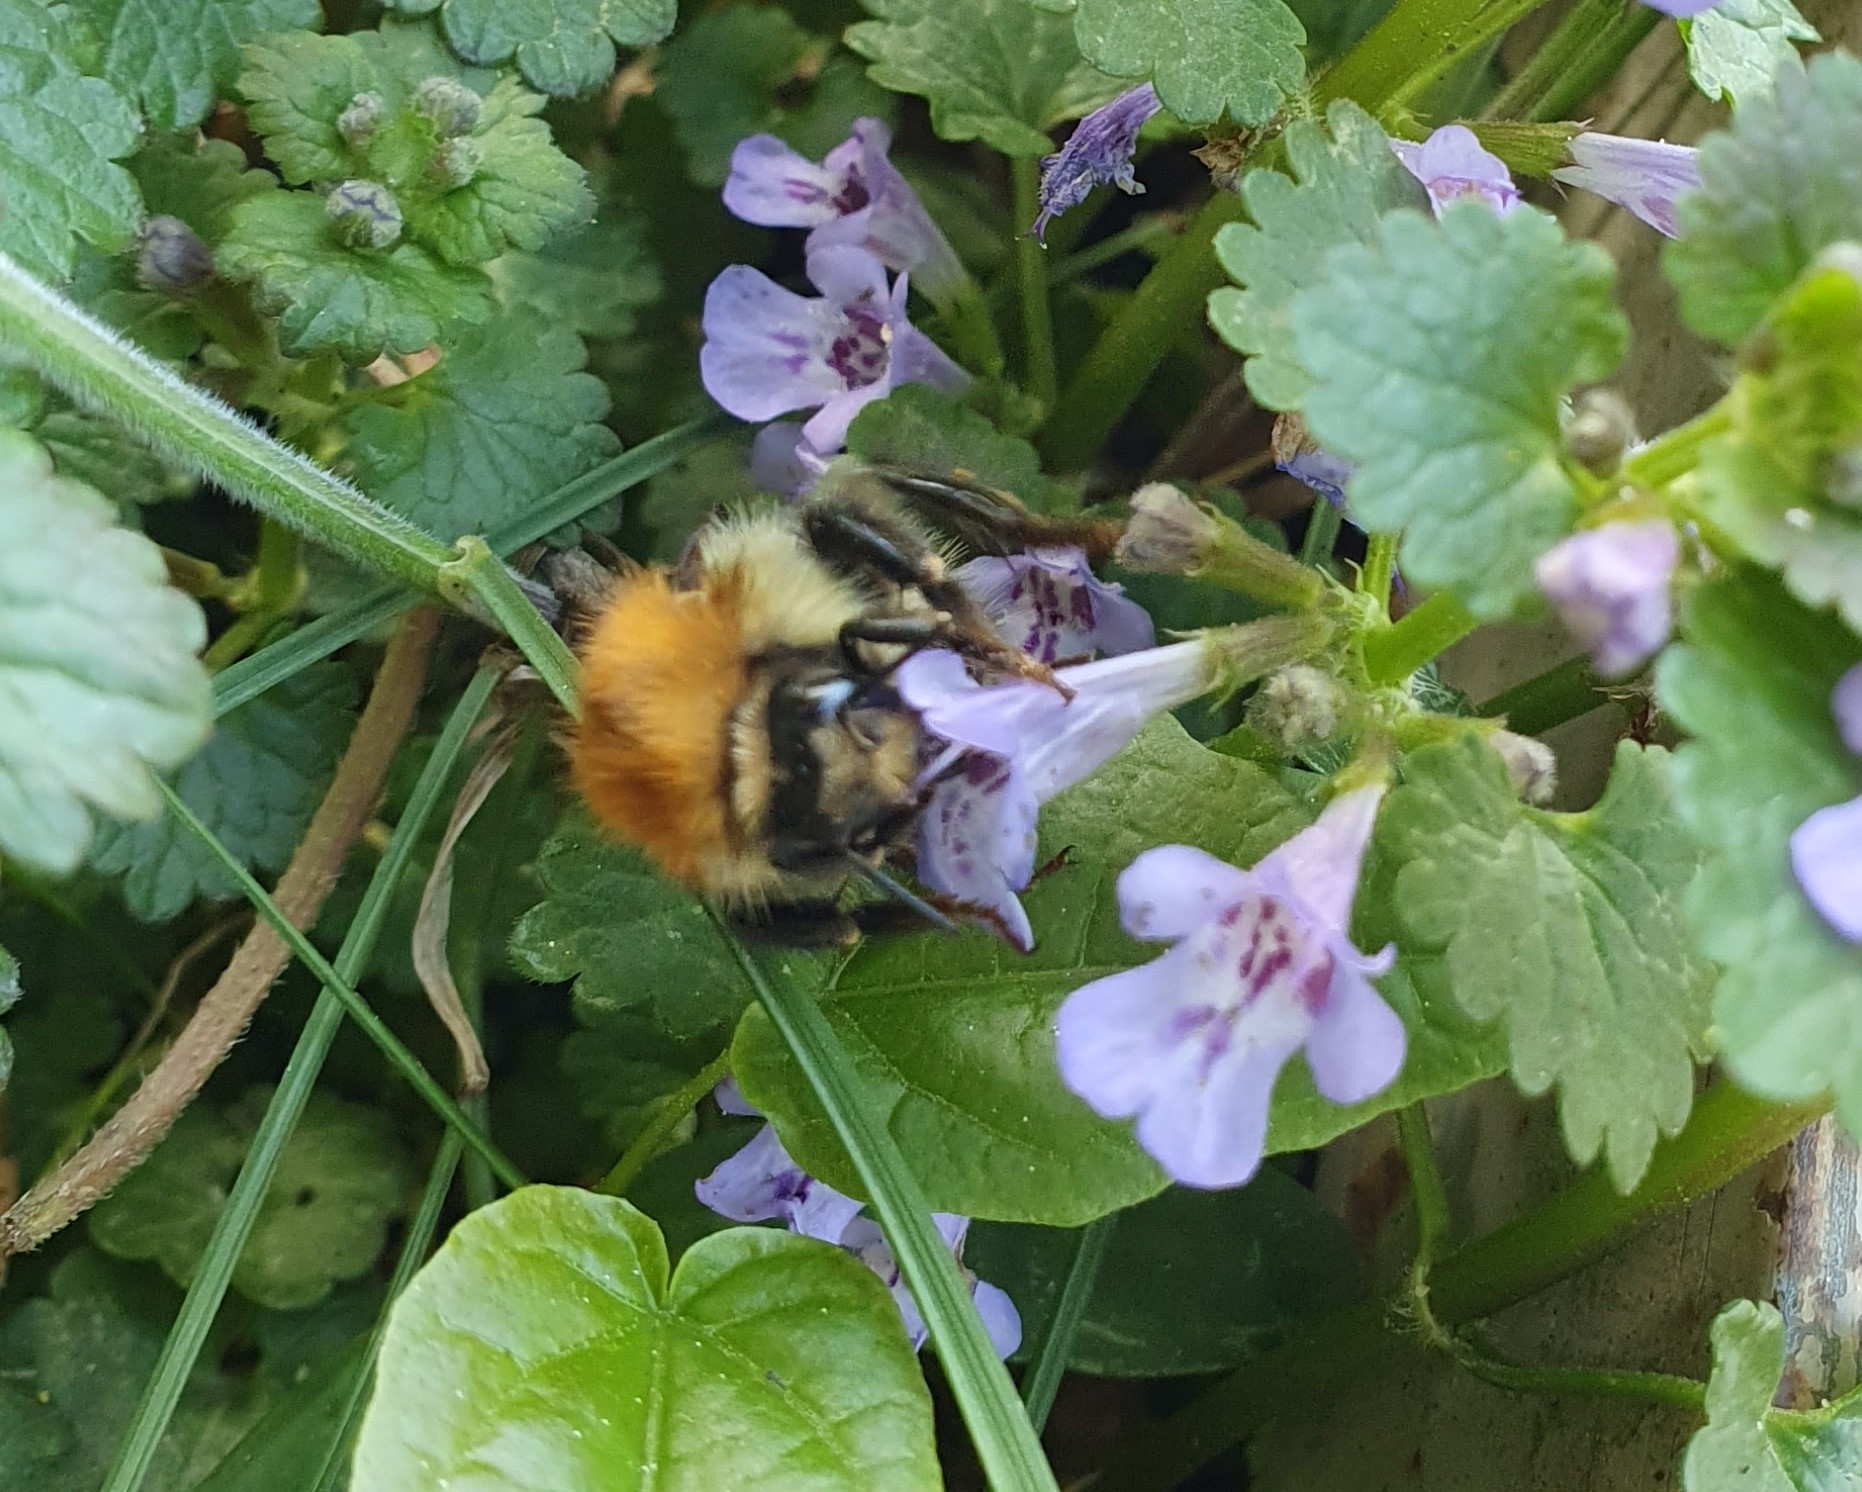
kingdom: Animalia
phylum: Arthropoda
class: Insecta
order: Hymenoptera
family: Apidae
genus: Bombus
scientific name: Bombus pascuorum
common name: Common carder bee
